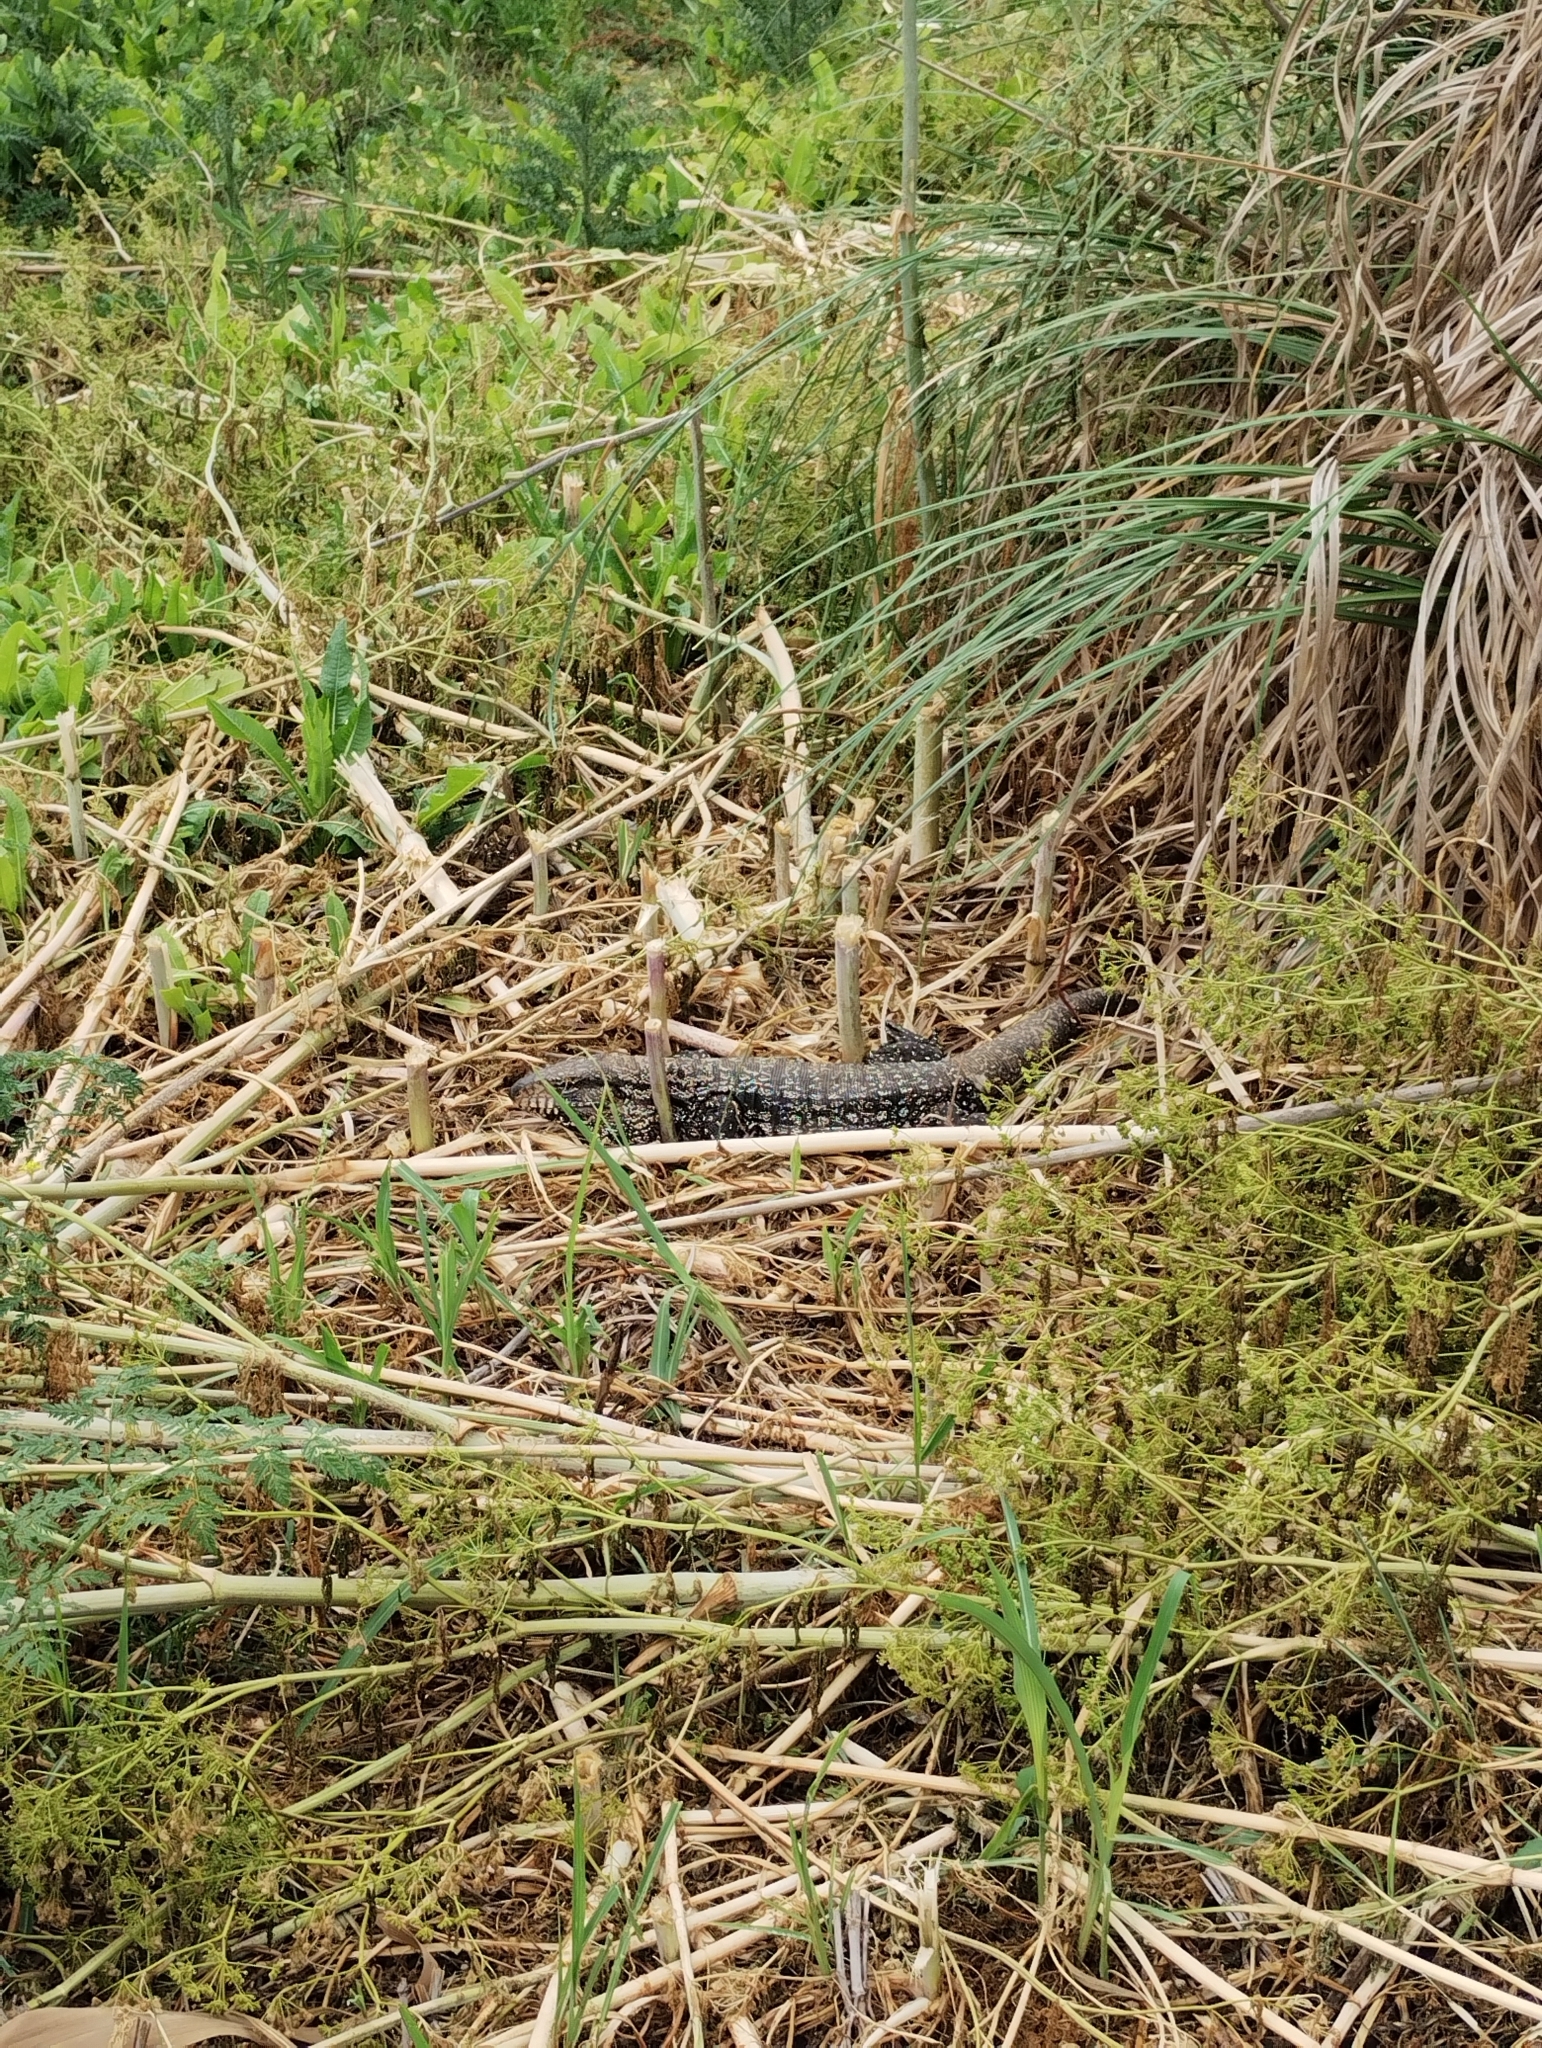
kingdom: Animalia
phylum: Chordata
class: Squamata
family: Teiidae
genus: Salvator
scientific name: Salvator merianae
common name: Argentine black and white tegu
